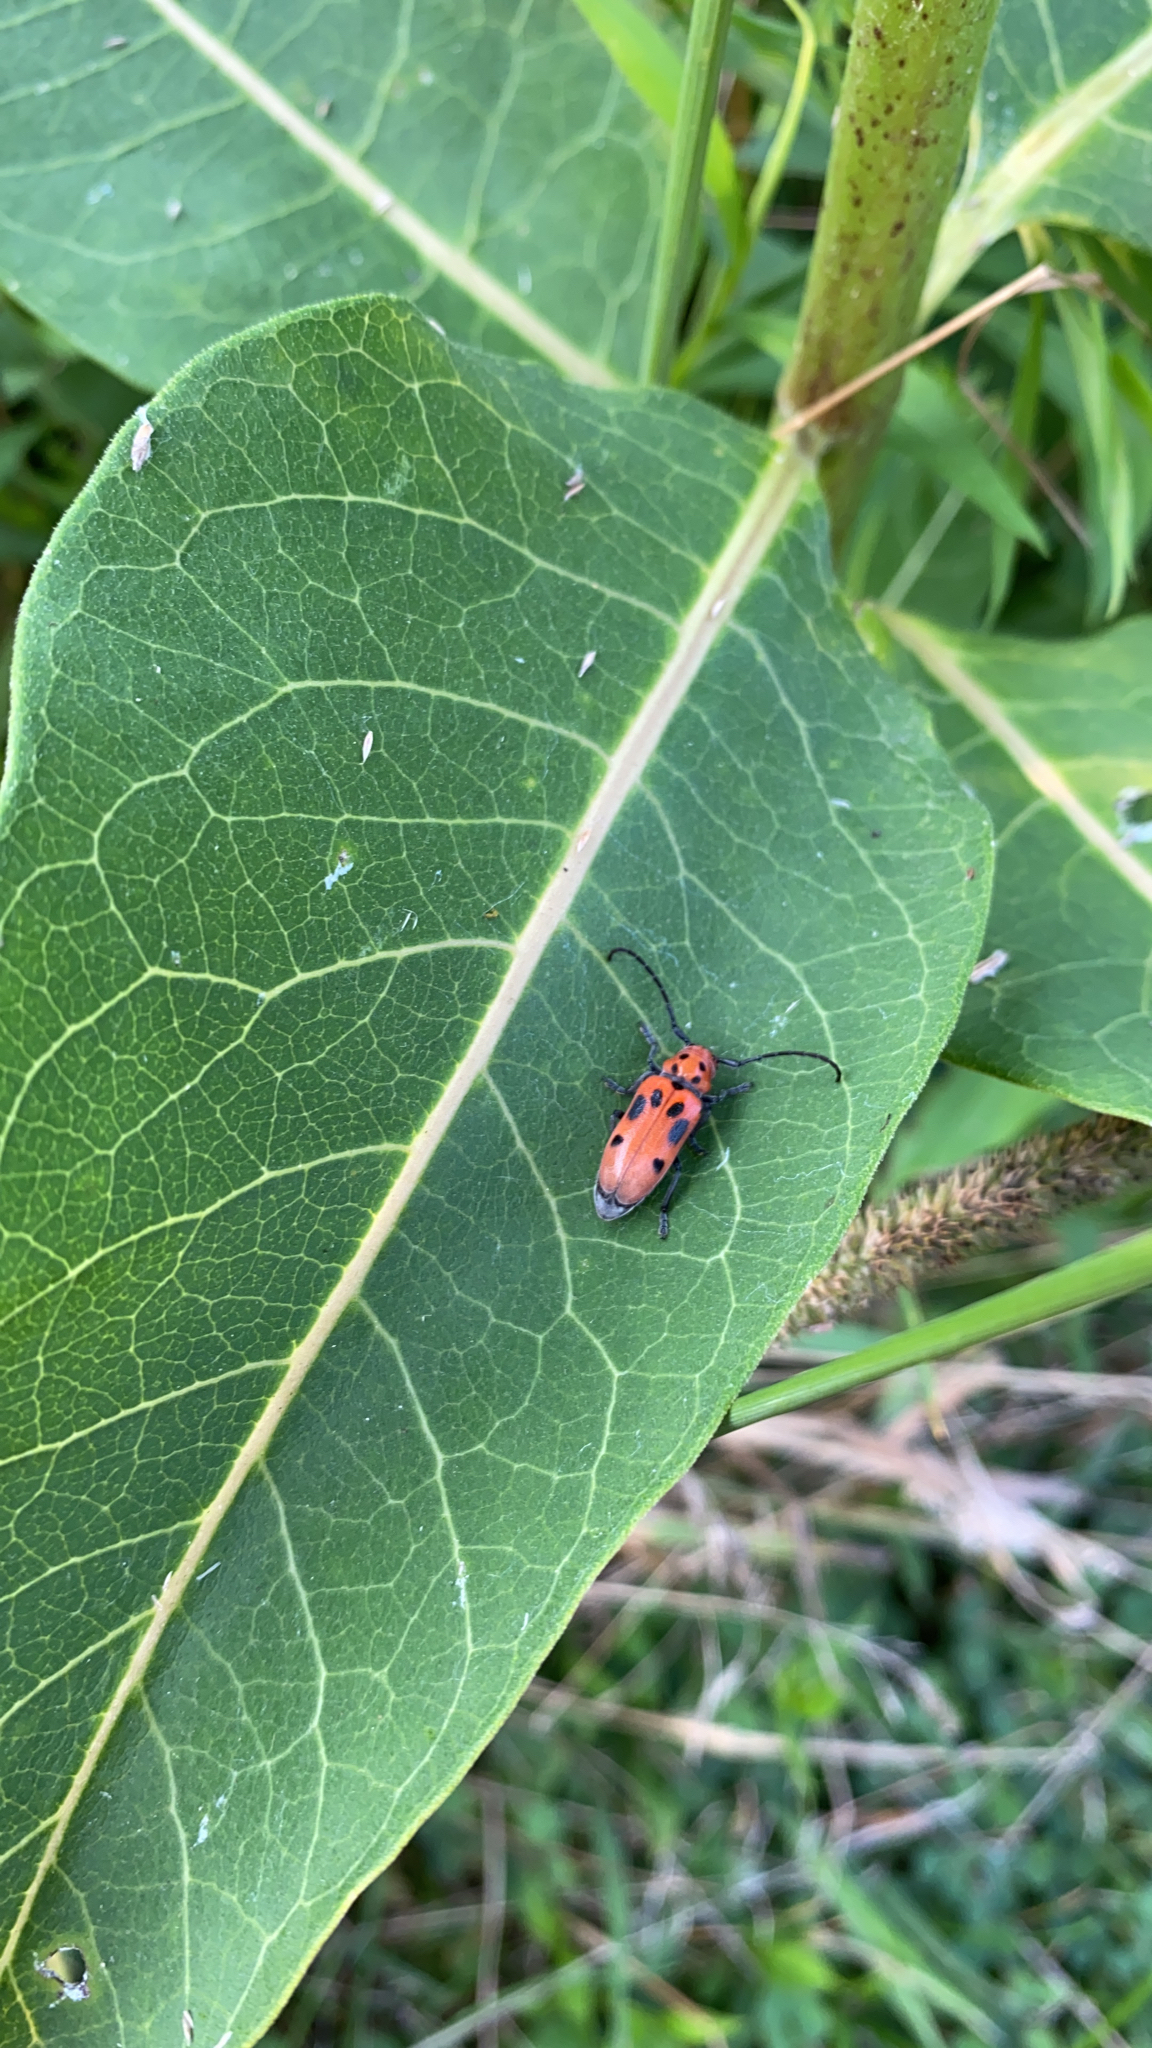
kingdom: Animalia
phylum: Arthropoda
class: Insecta
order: Coleoptera
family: Cerambycidae
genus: Tetraopes
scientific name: Tetraopes tetrophthalmus
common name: Red milkweed beetle
